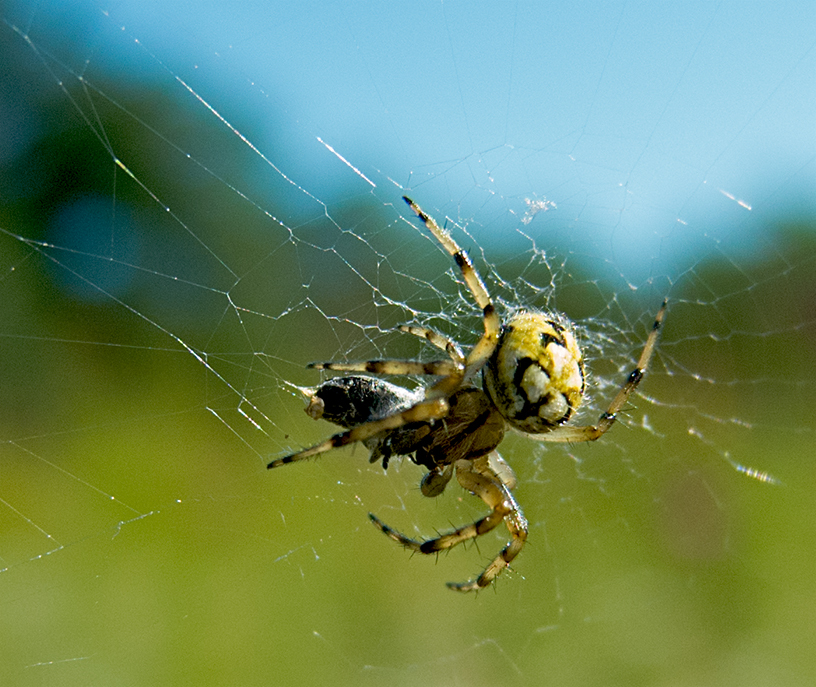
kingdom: Animalia
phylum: Arthropoda
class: Arachnida
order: Araneae
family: Araneidae
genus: Neoscona
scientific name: Neoscona adianta
